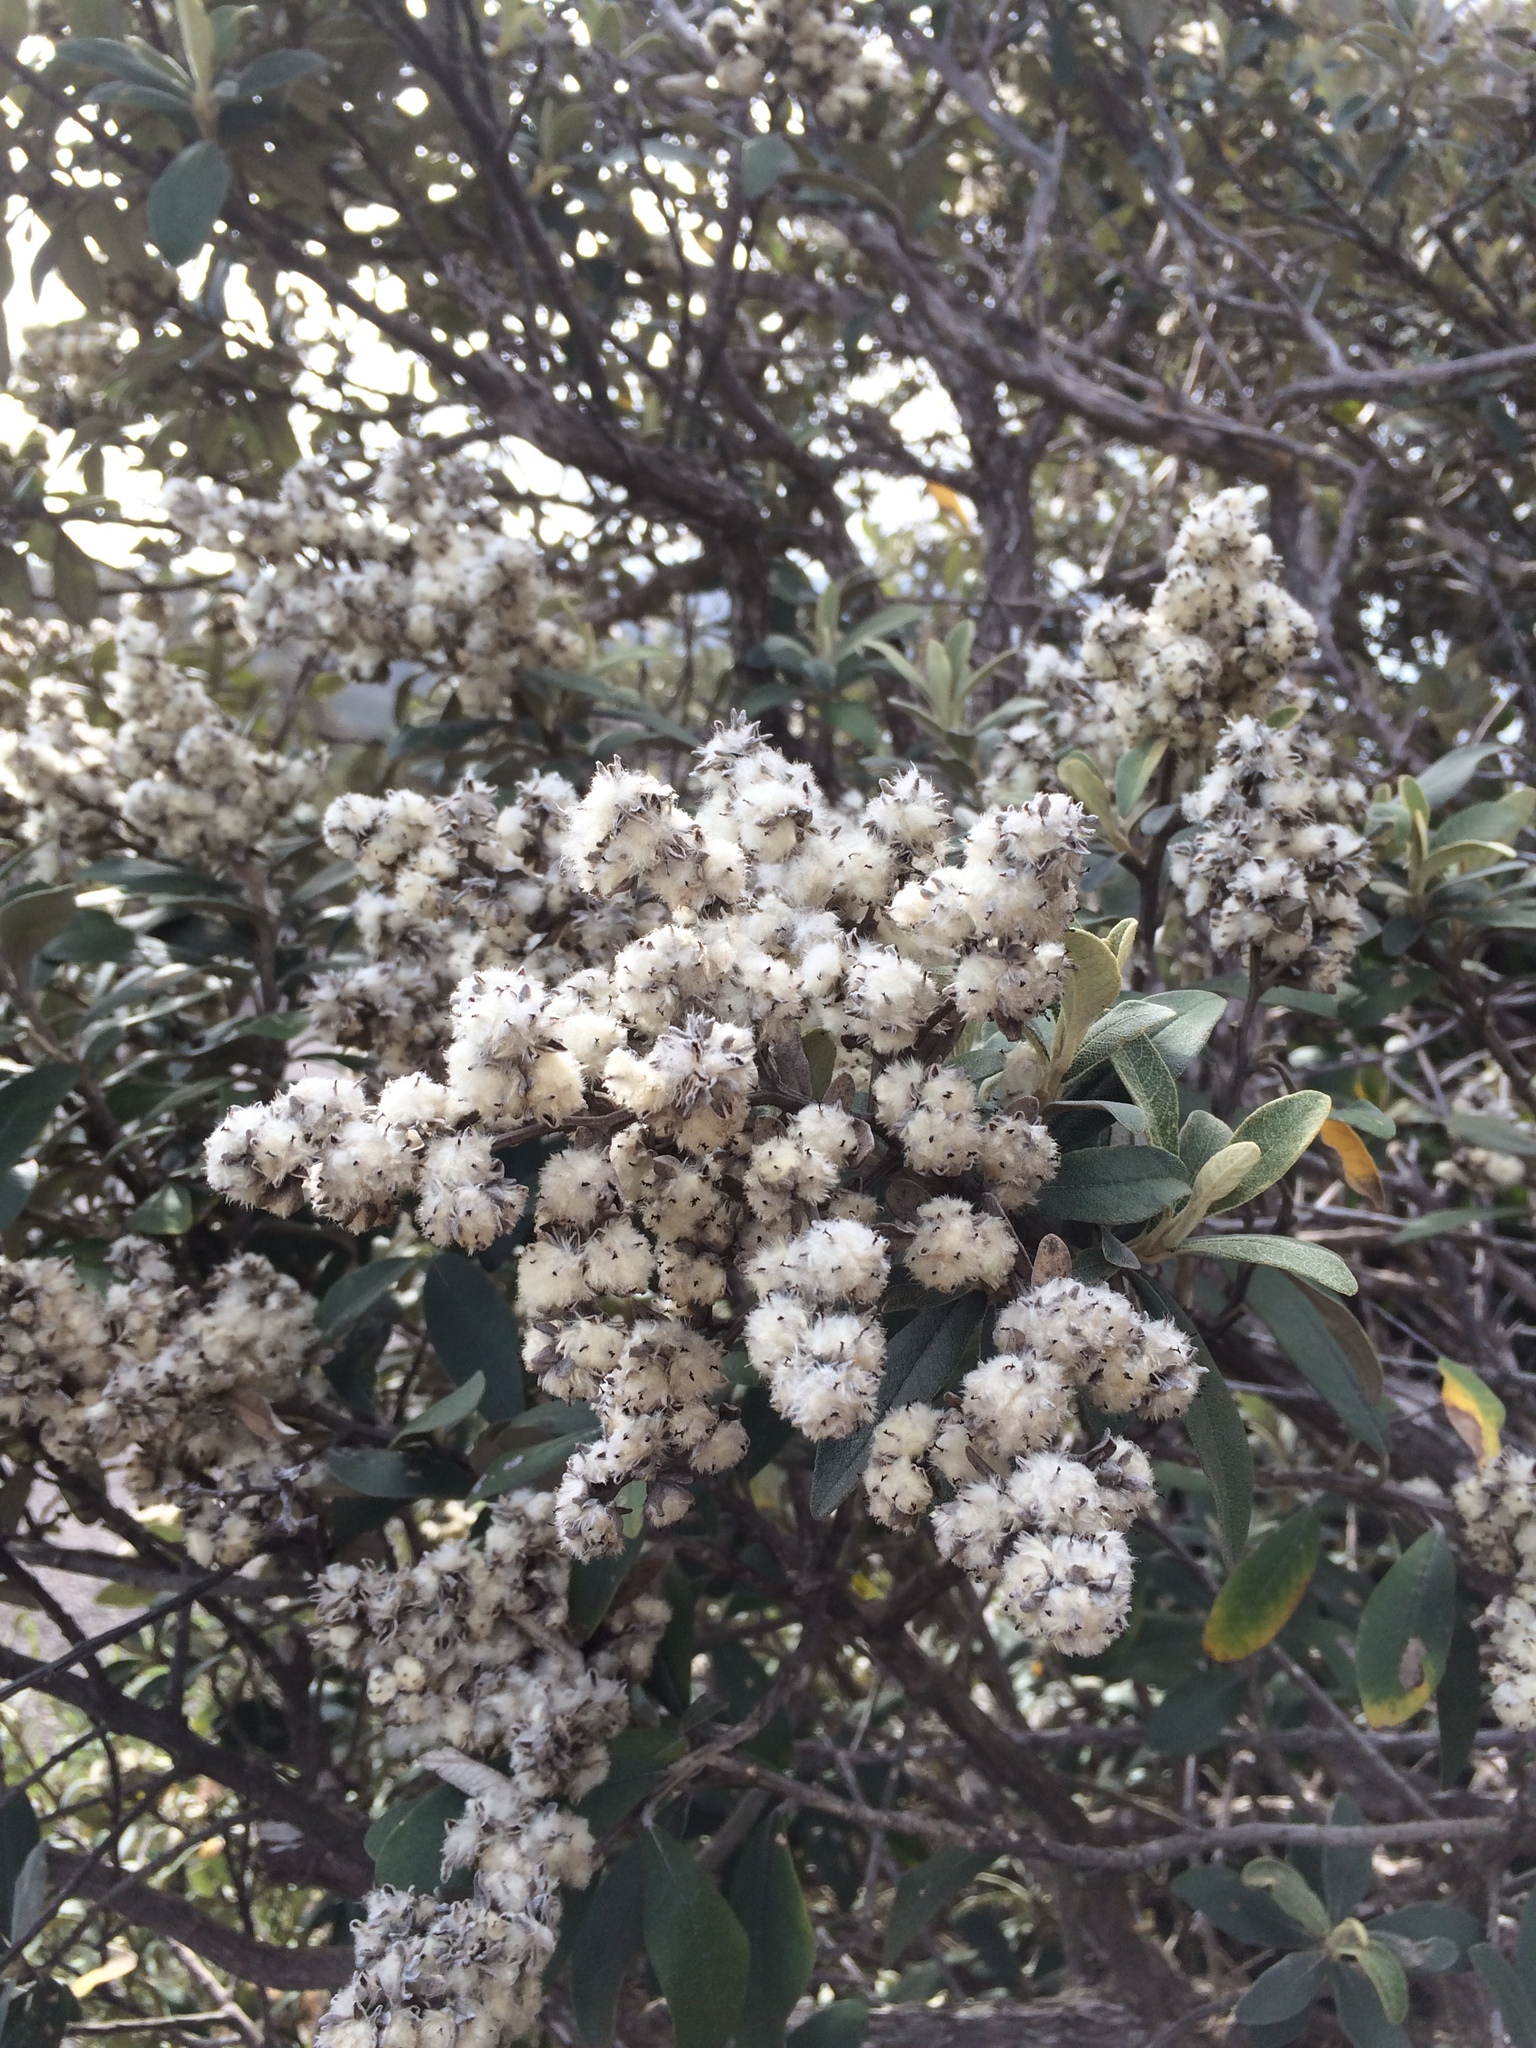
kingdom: Plantae
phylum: Tracheophyta
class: Magnoliopsida
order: Asterales
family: Asteraceae
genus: Tarchonanthus
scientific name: Tarchonanthus littoralis
